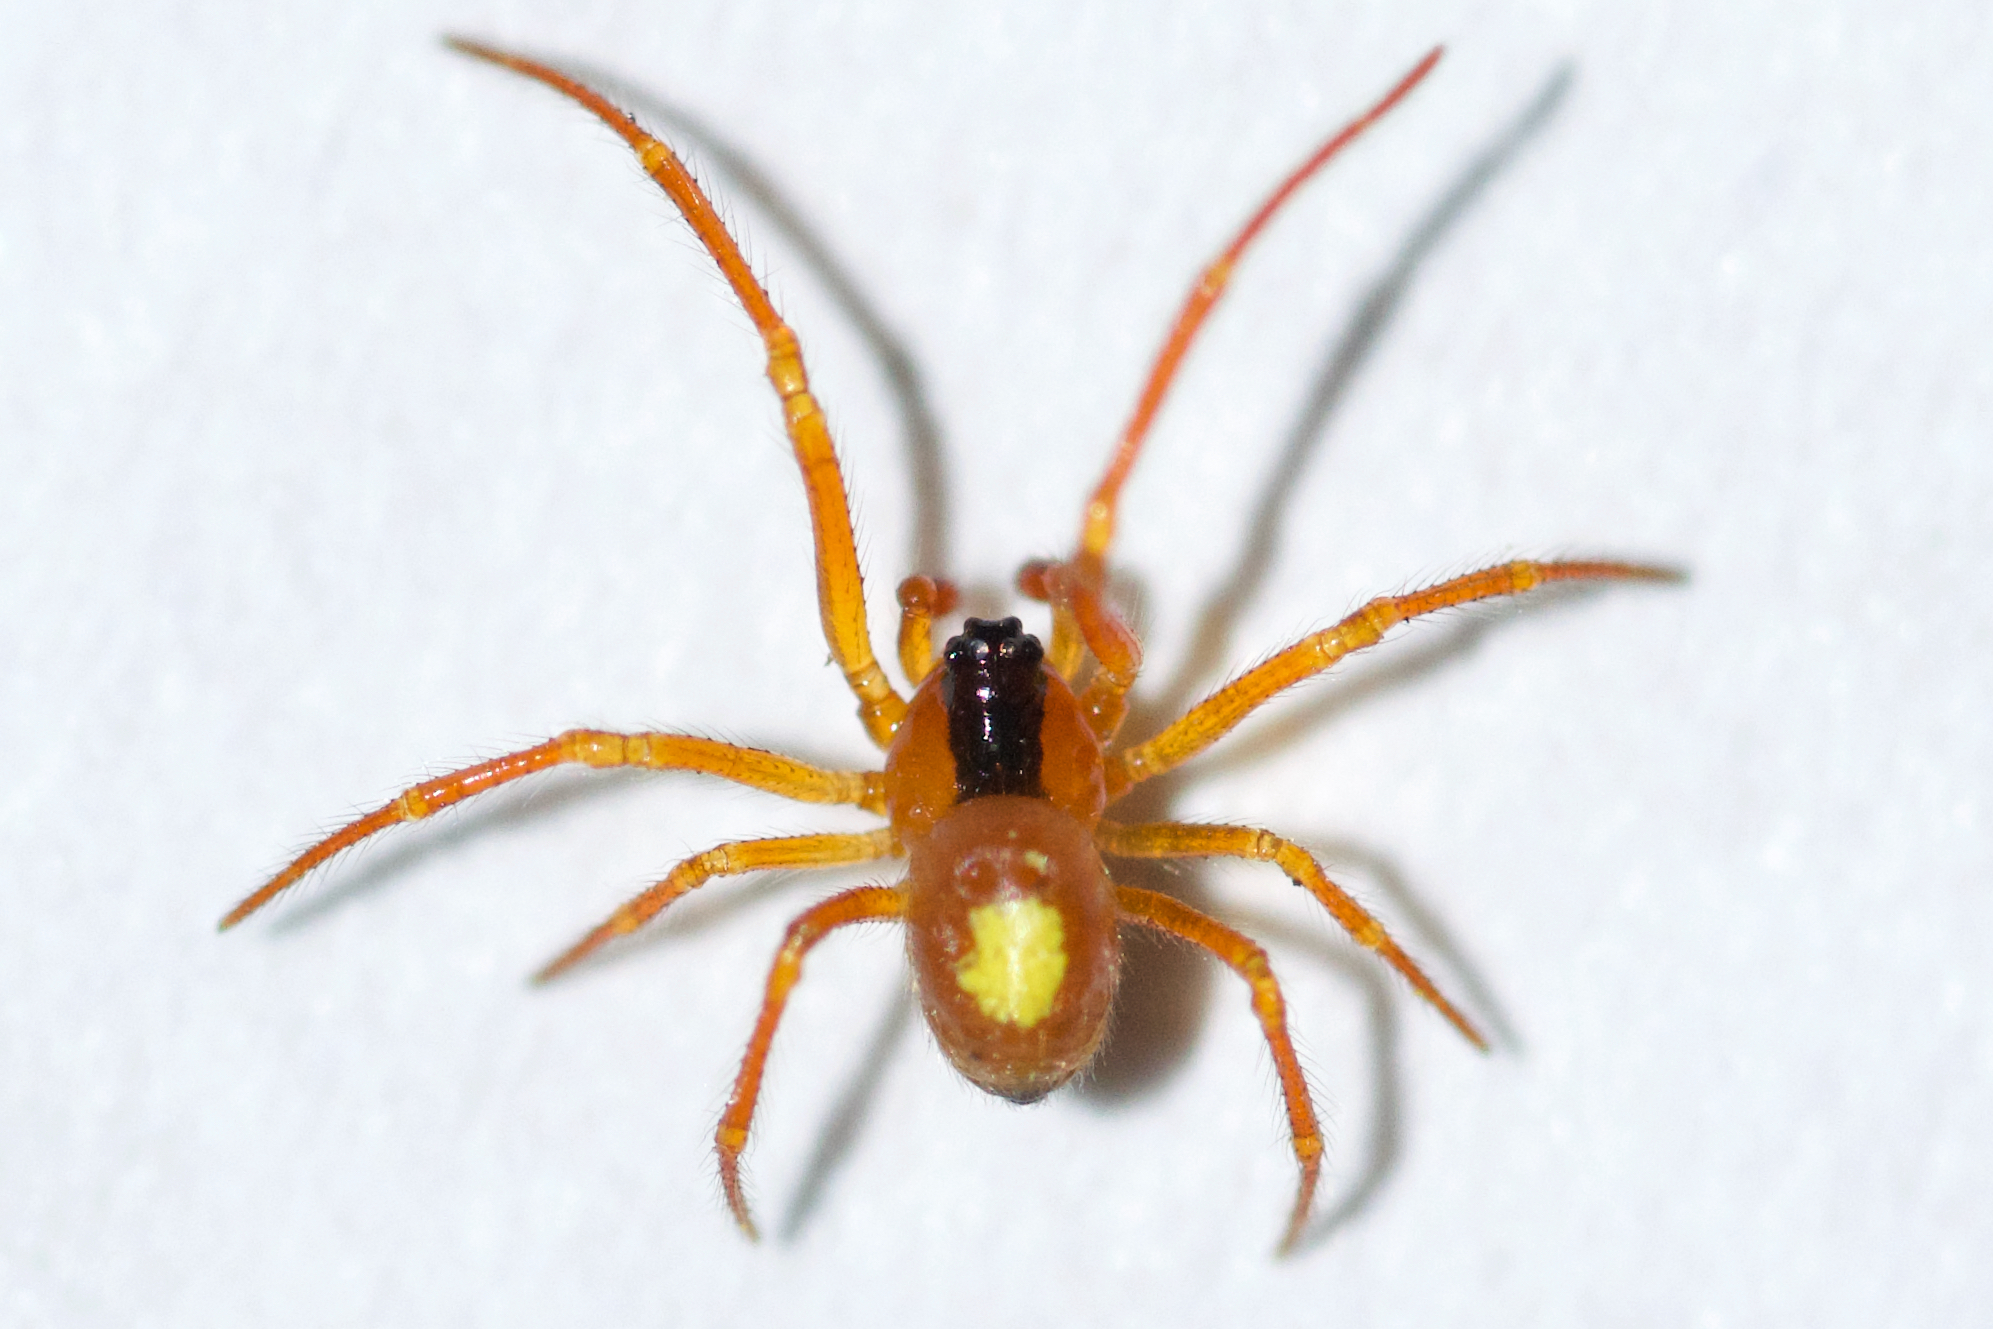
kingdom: Animalia
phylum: Arthropoda
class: Arachnida
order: Araneae
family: Theridiidae
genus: Theridula
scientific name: Theridula emertoni
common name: Emerton's bitubercled cobweaver
